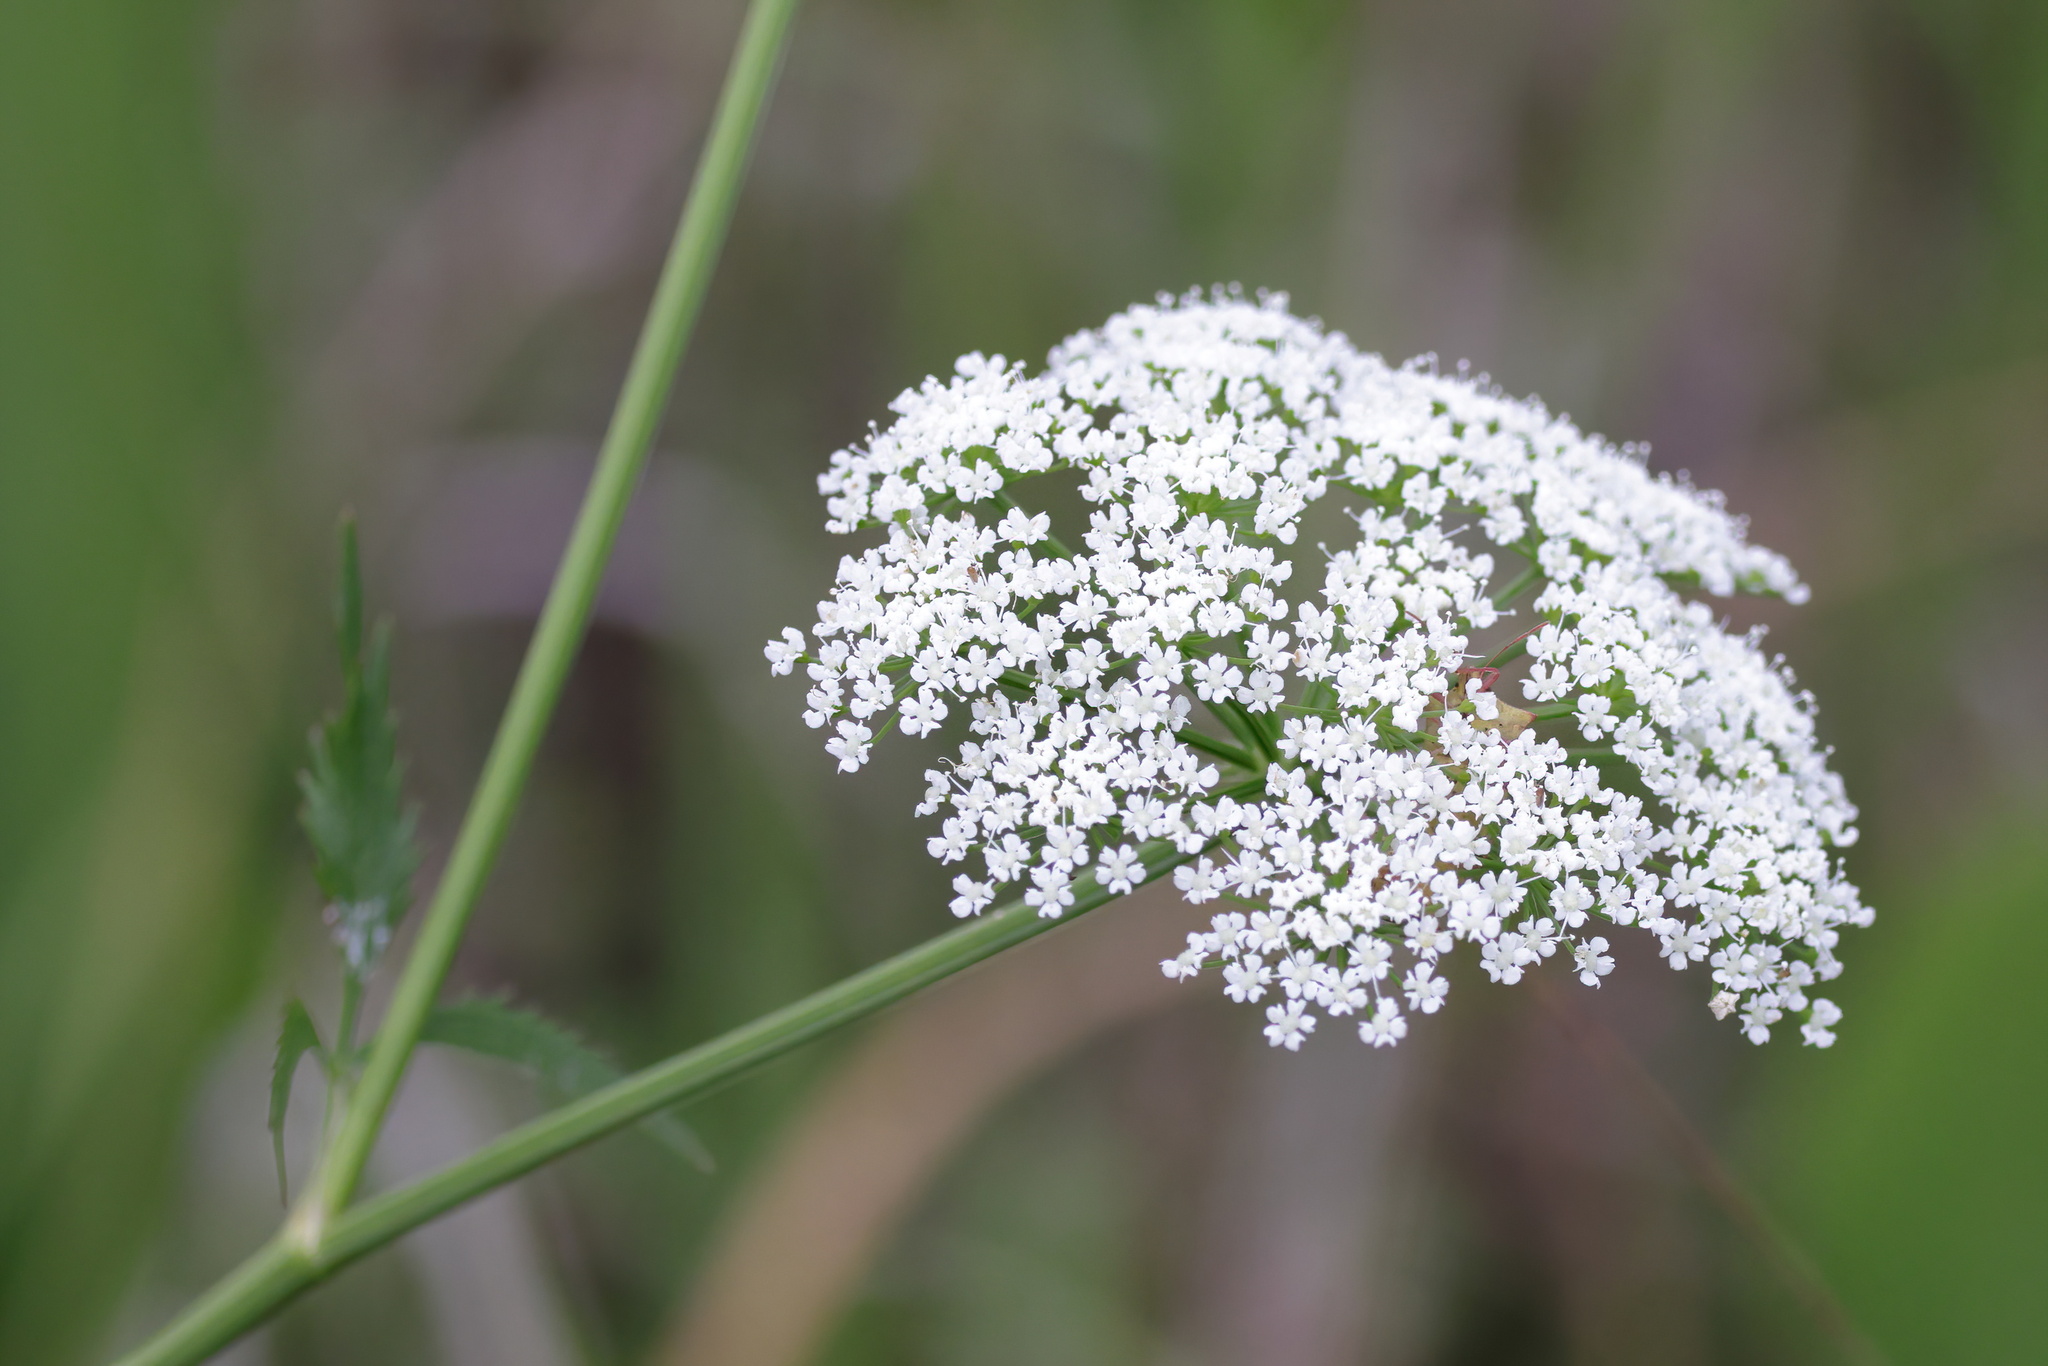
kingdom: Plantae
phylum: Tracheophyta
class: Magnoliopsida
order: Apiales
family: Apiaceae
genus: Cicuta
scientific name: Cicuta maculata
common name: Spotted cowbane
